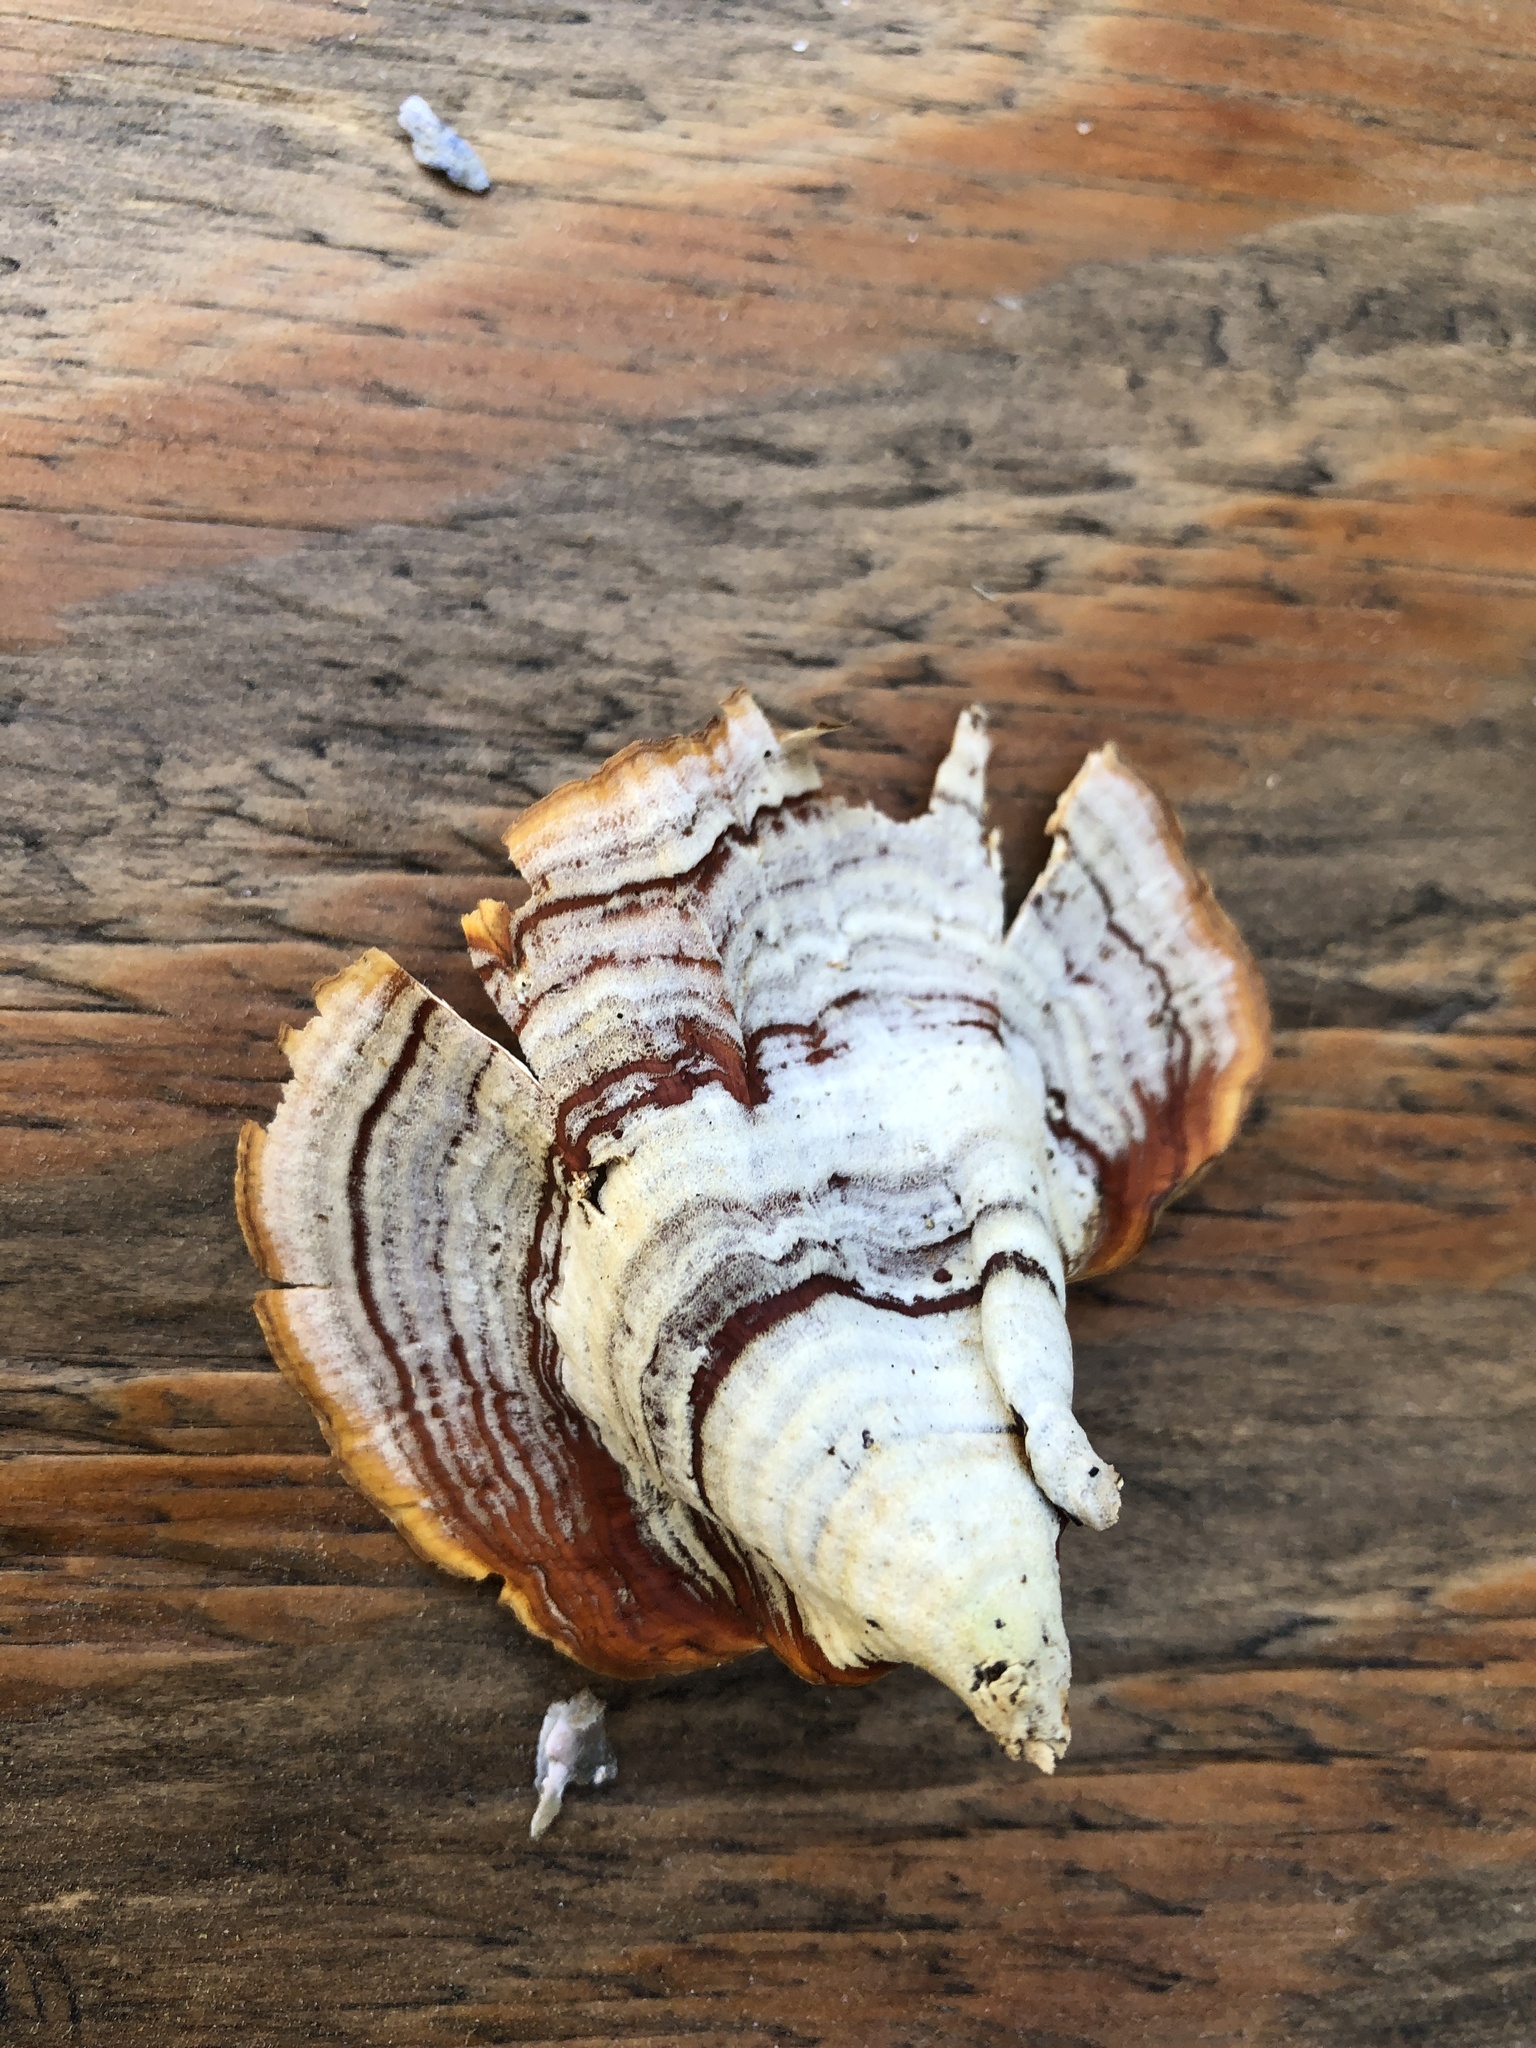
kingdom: Fungi
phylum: Basidiomycota
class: Agaricomycetes
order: Russulales
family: Stereaceae
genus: Stereum
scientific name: Stereum lobatum
